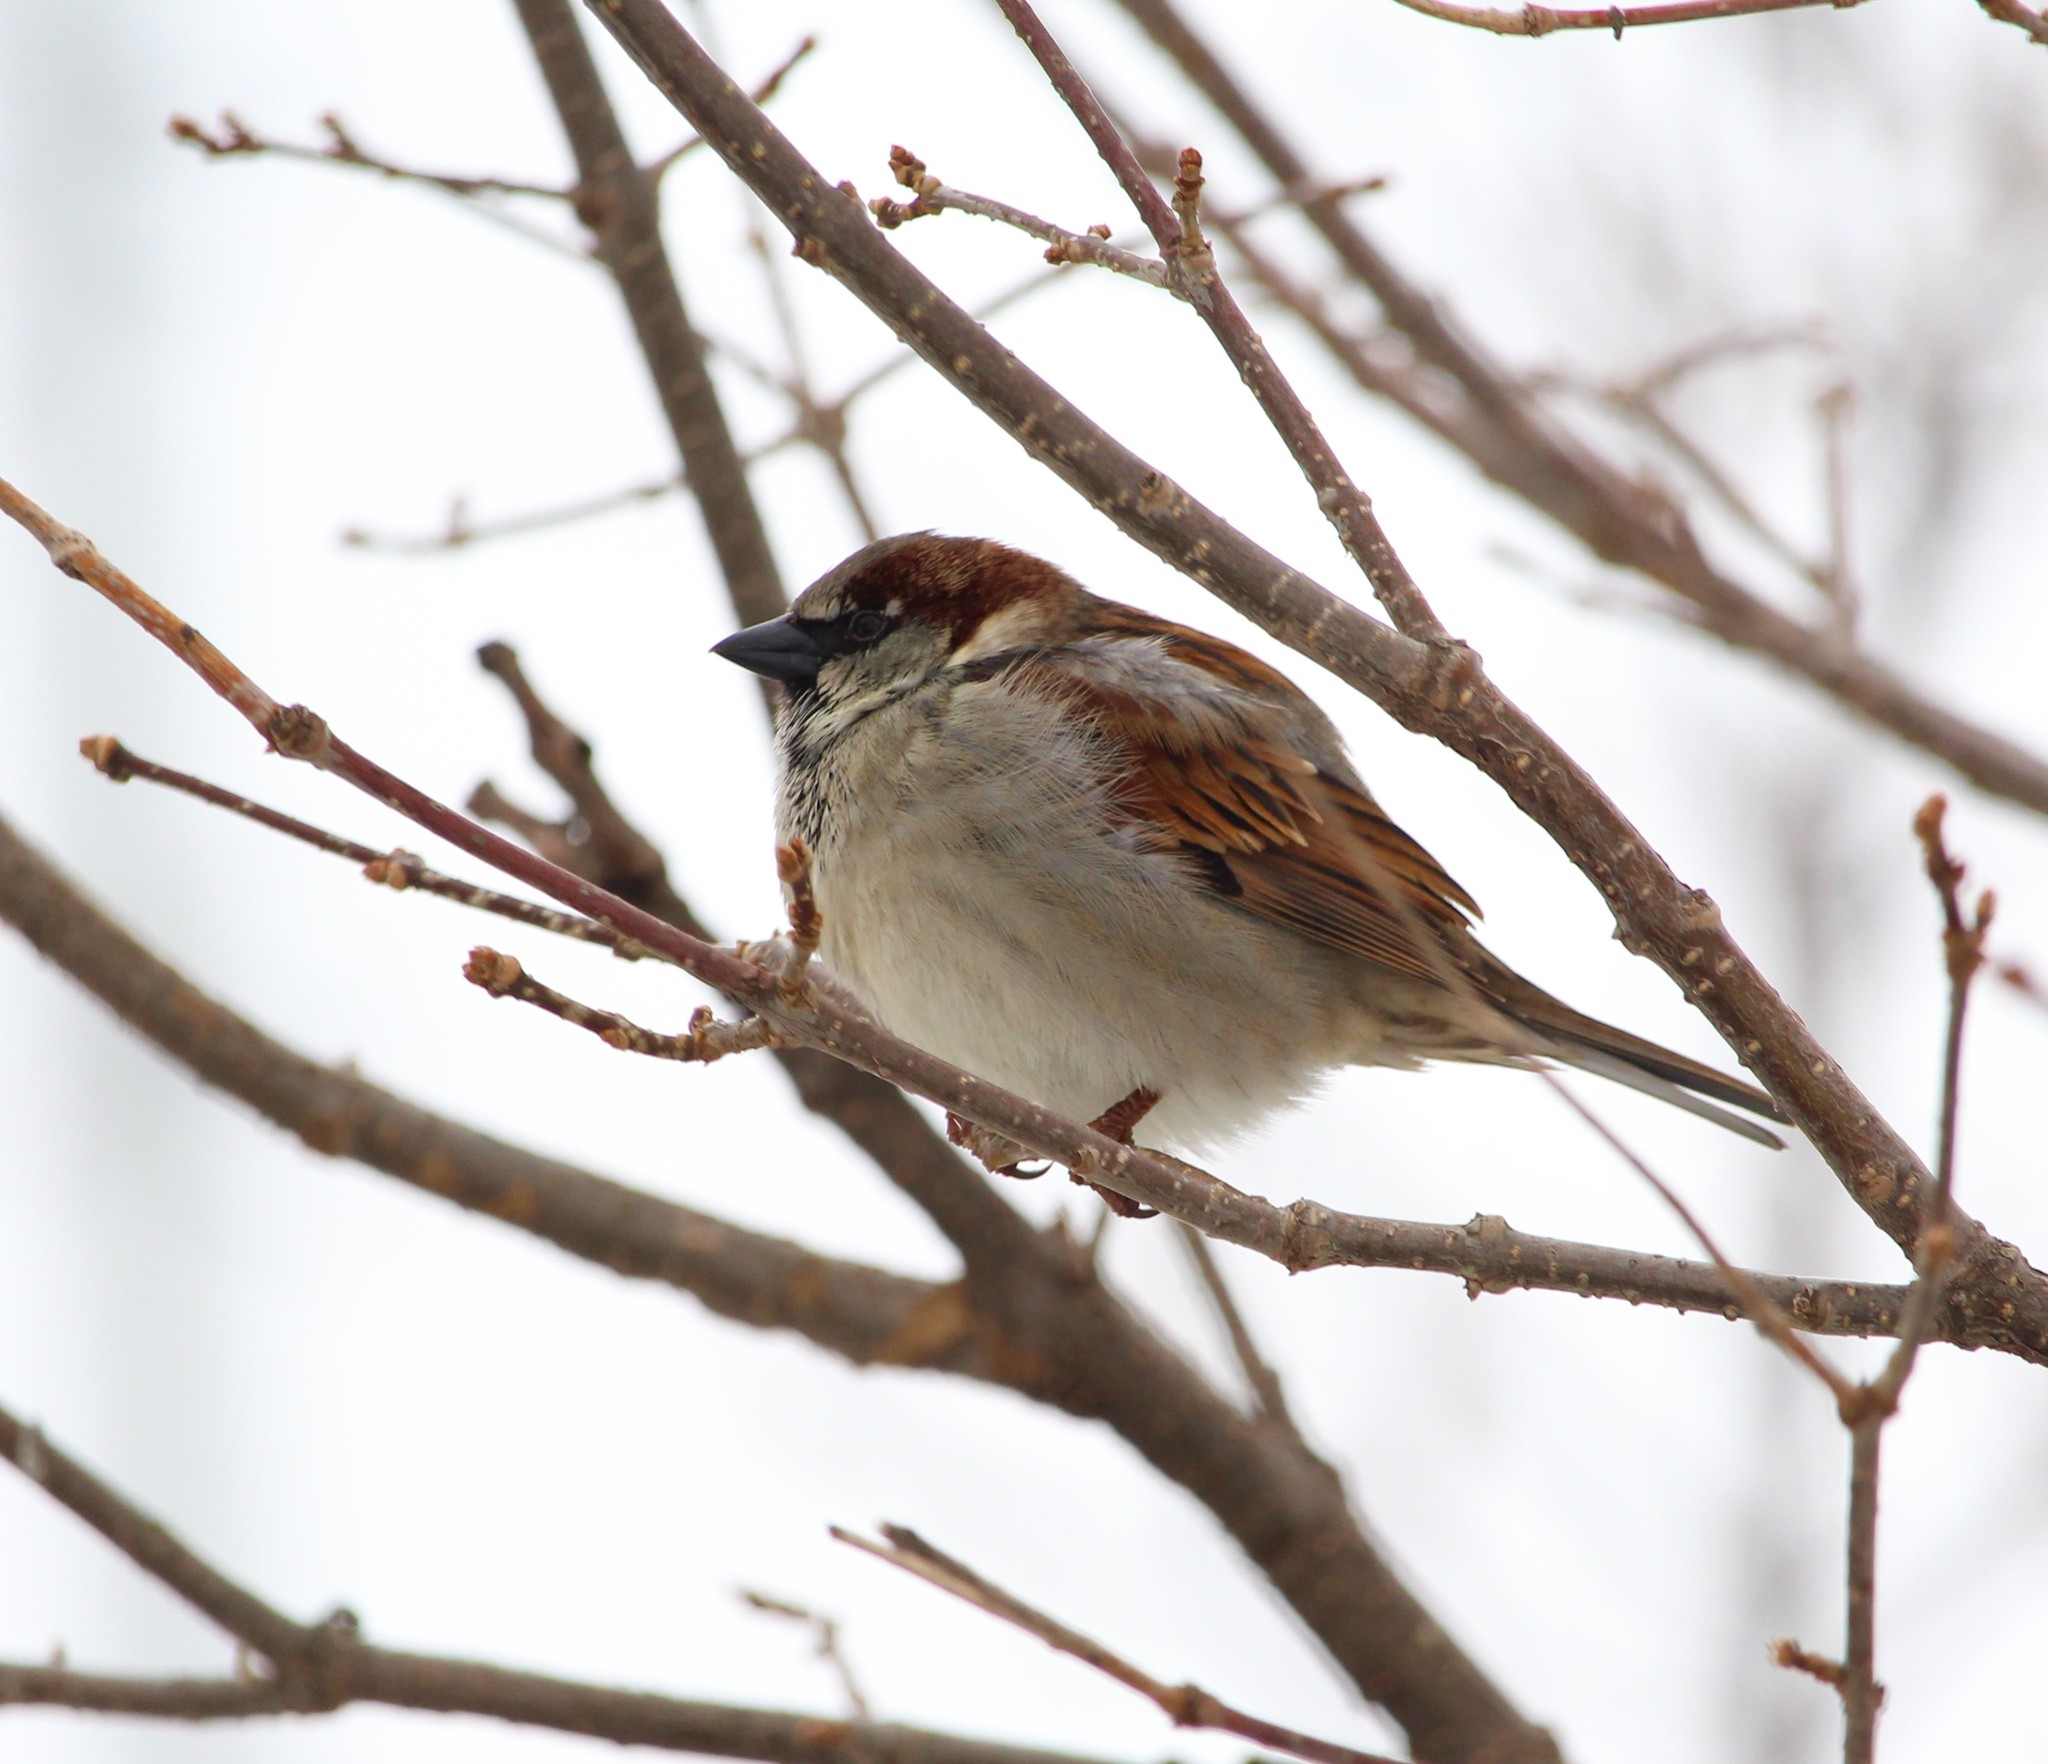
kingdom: Animalia
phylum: Chordata
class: Aves
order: Passeriformes
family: Passeridae
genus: Passer
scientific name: Passer domesticus
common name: House sparrow
